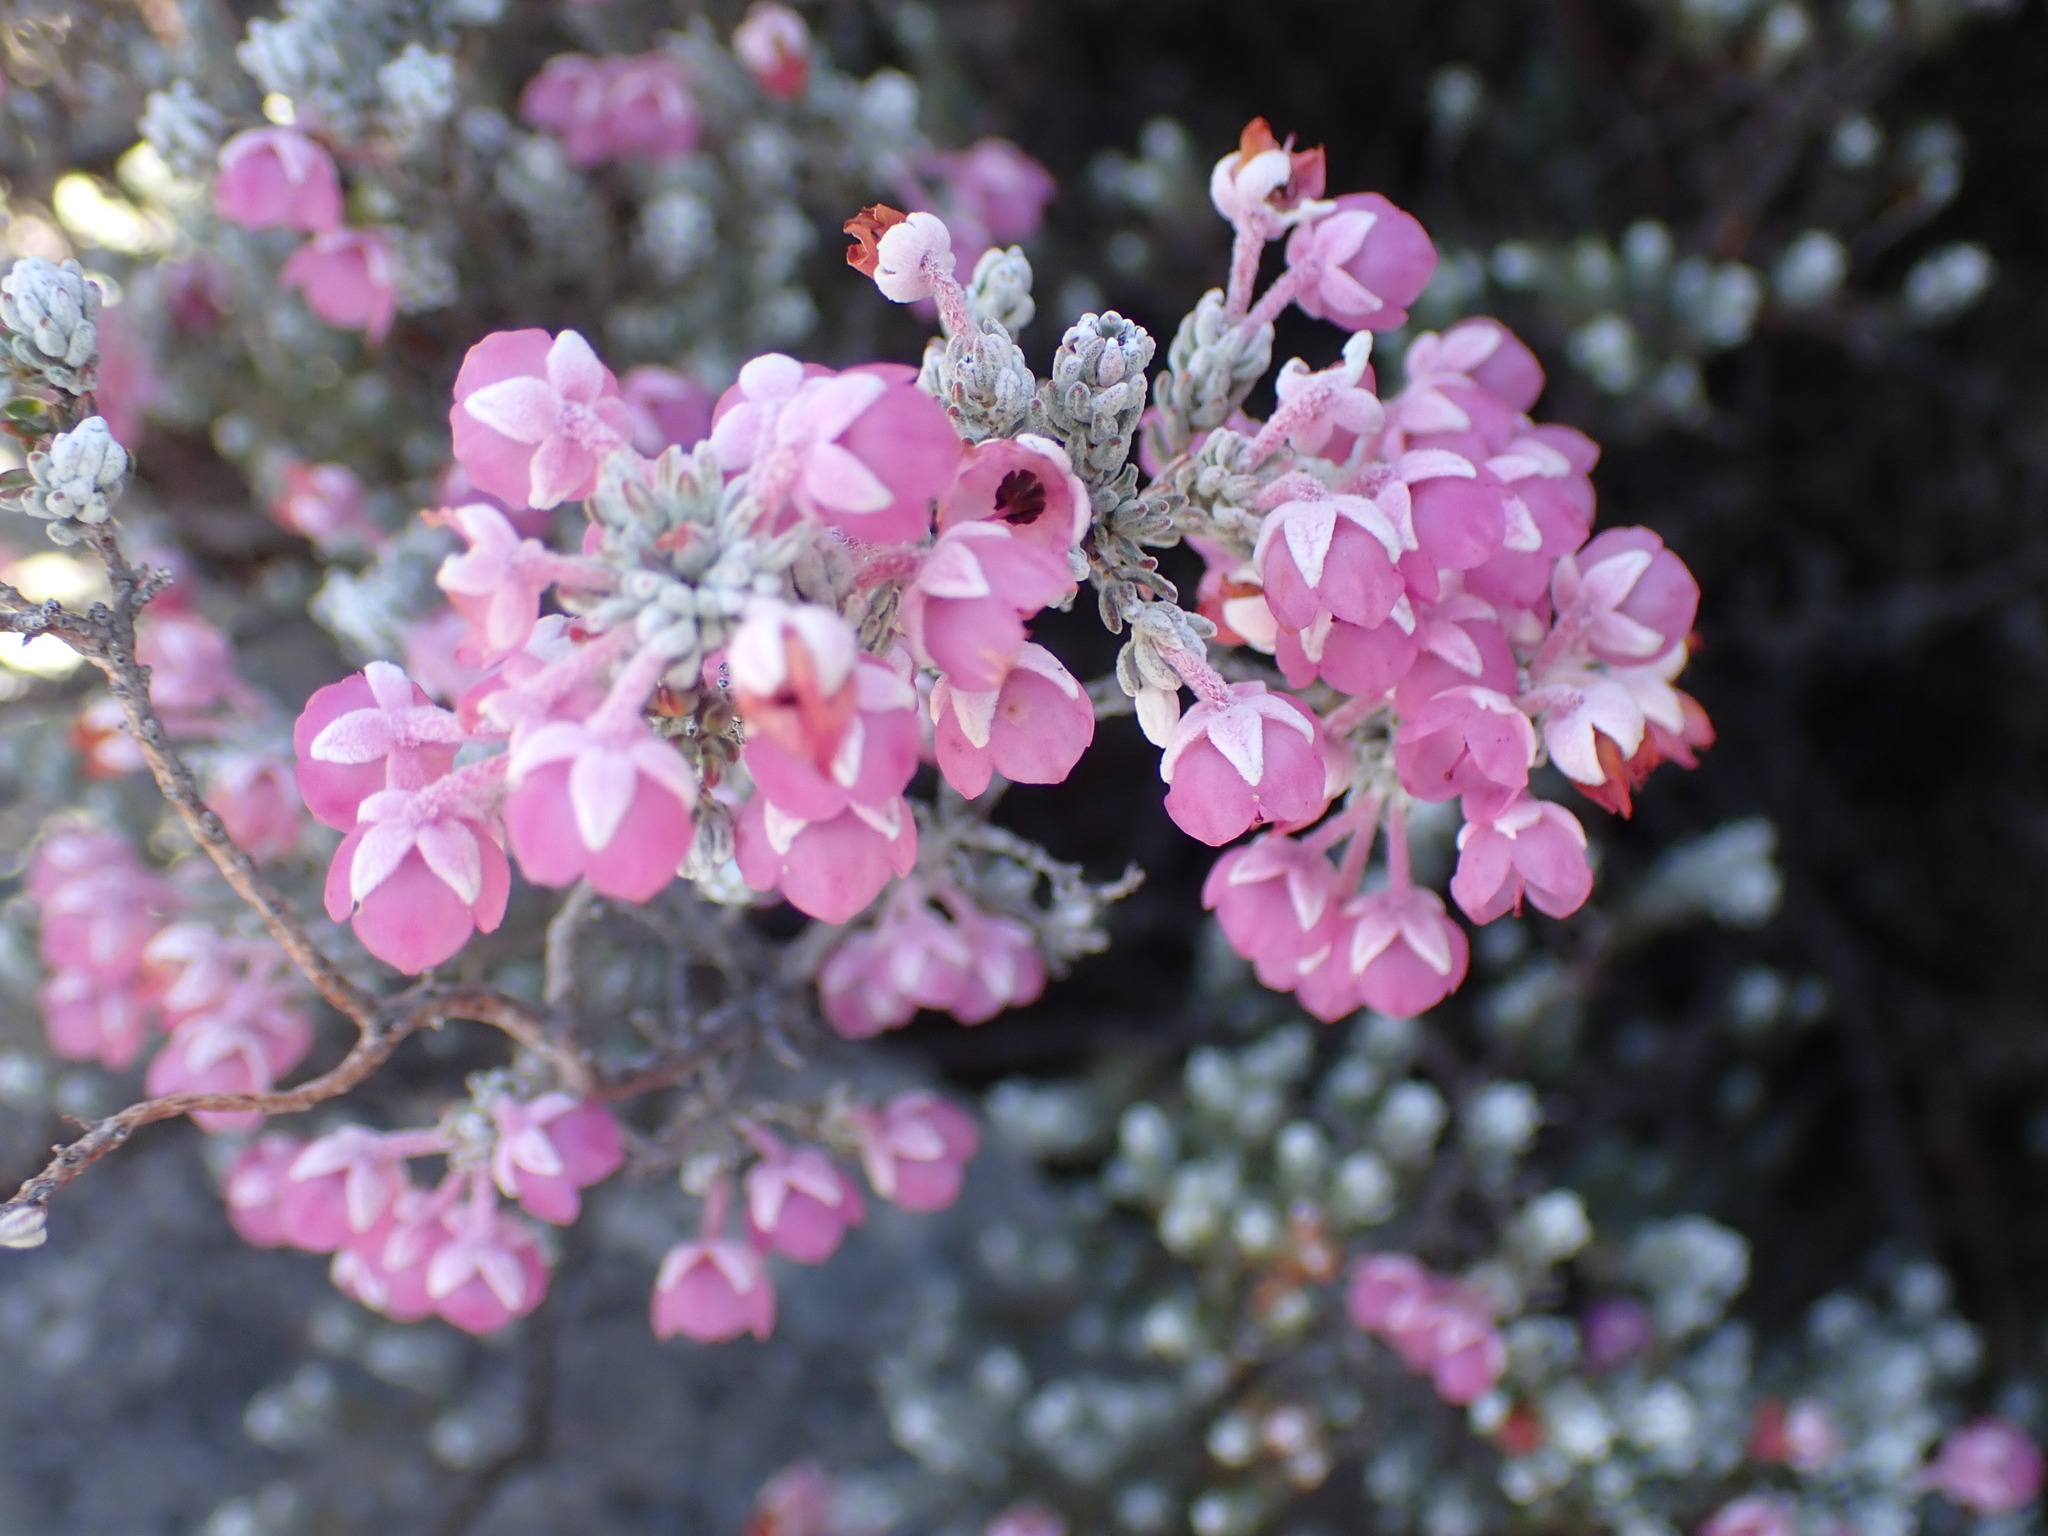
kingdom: Plantae
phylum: Tracheophyta
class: Magnoliopsida
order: Ericales
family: Ericaceae
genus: Erica
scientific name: Erica passerina
